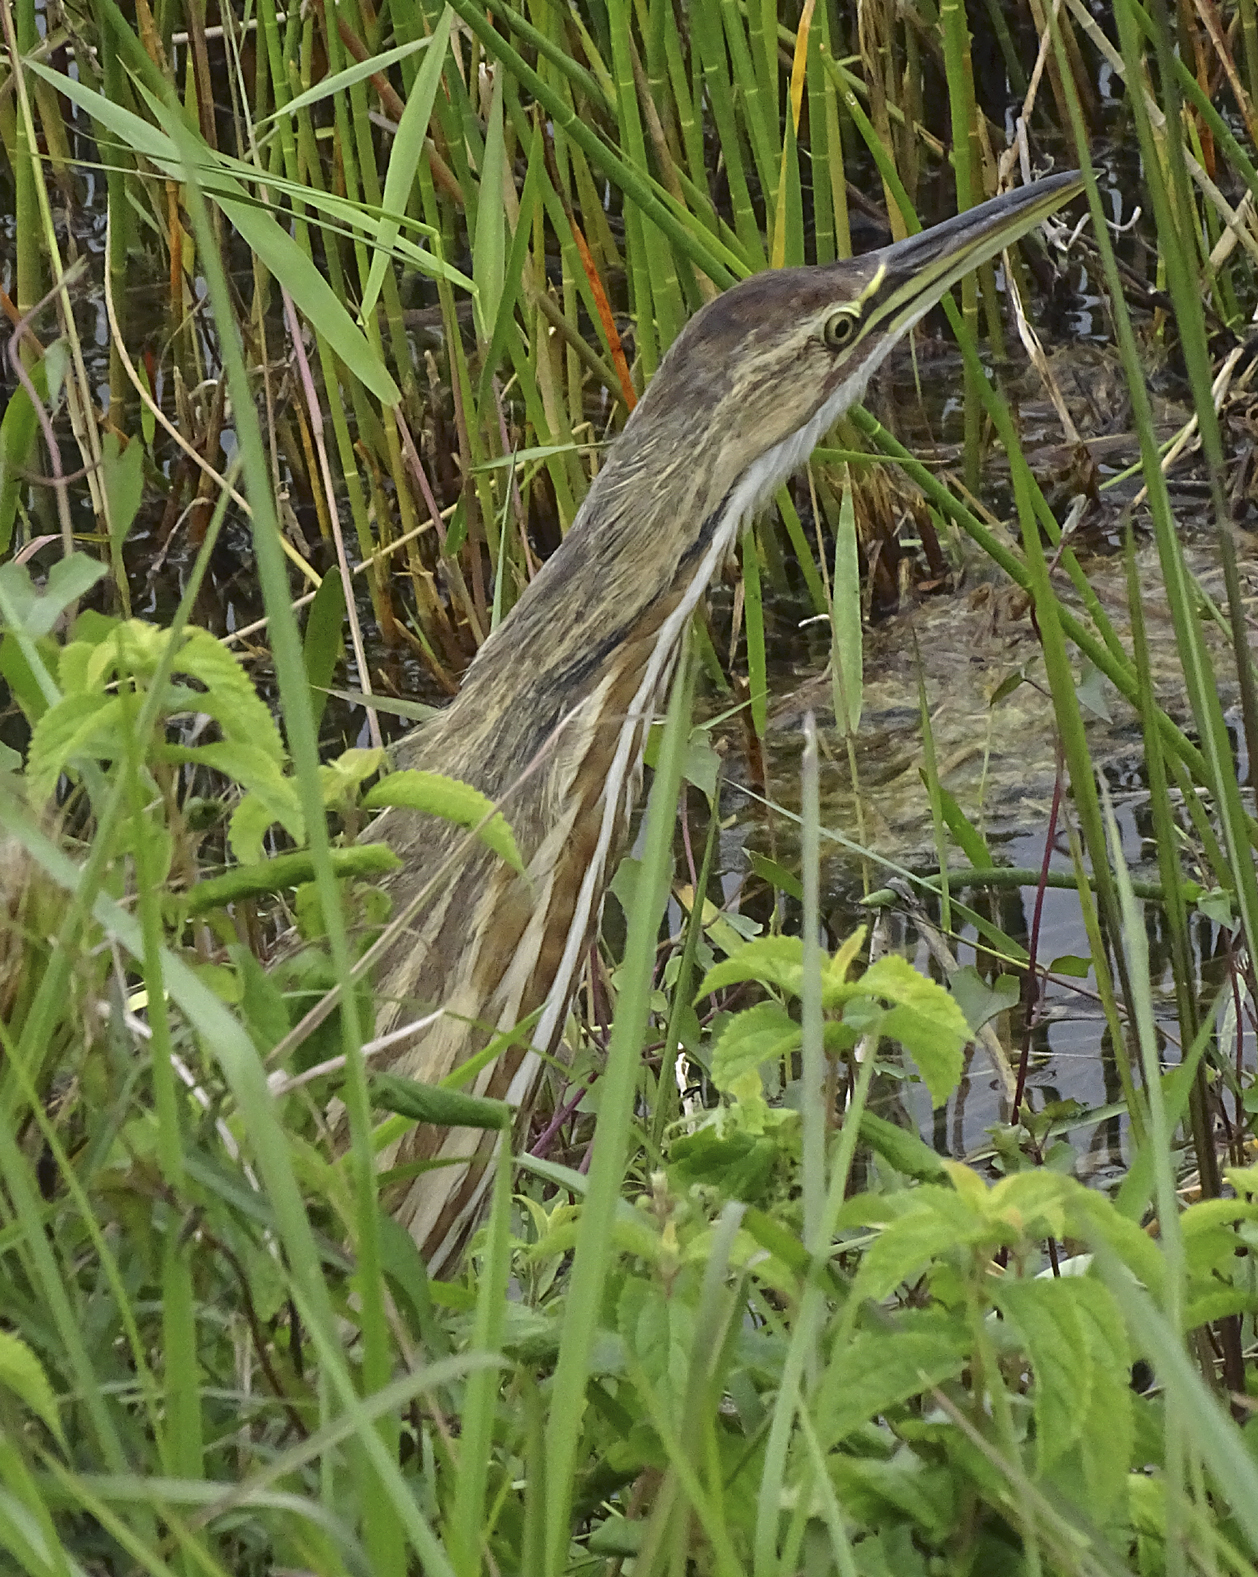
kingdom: Animalia
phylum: Chordata
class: Aves
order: Pelecaniformes
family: Ardeidae
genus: Botaurus
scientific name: Botaurus lentiginosus
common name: American bittern
